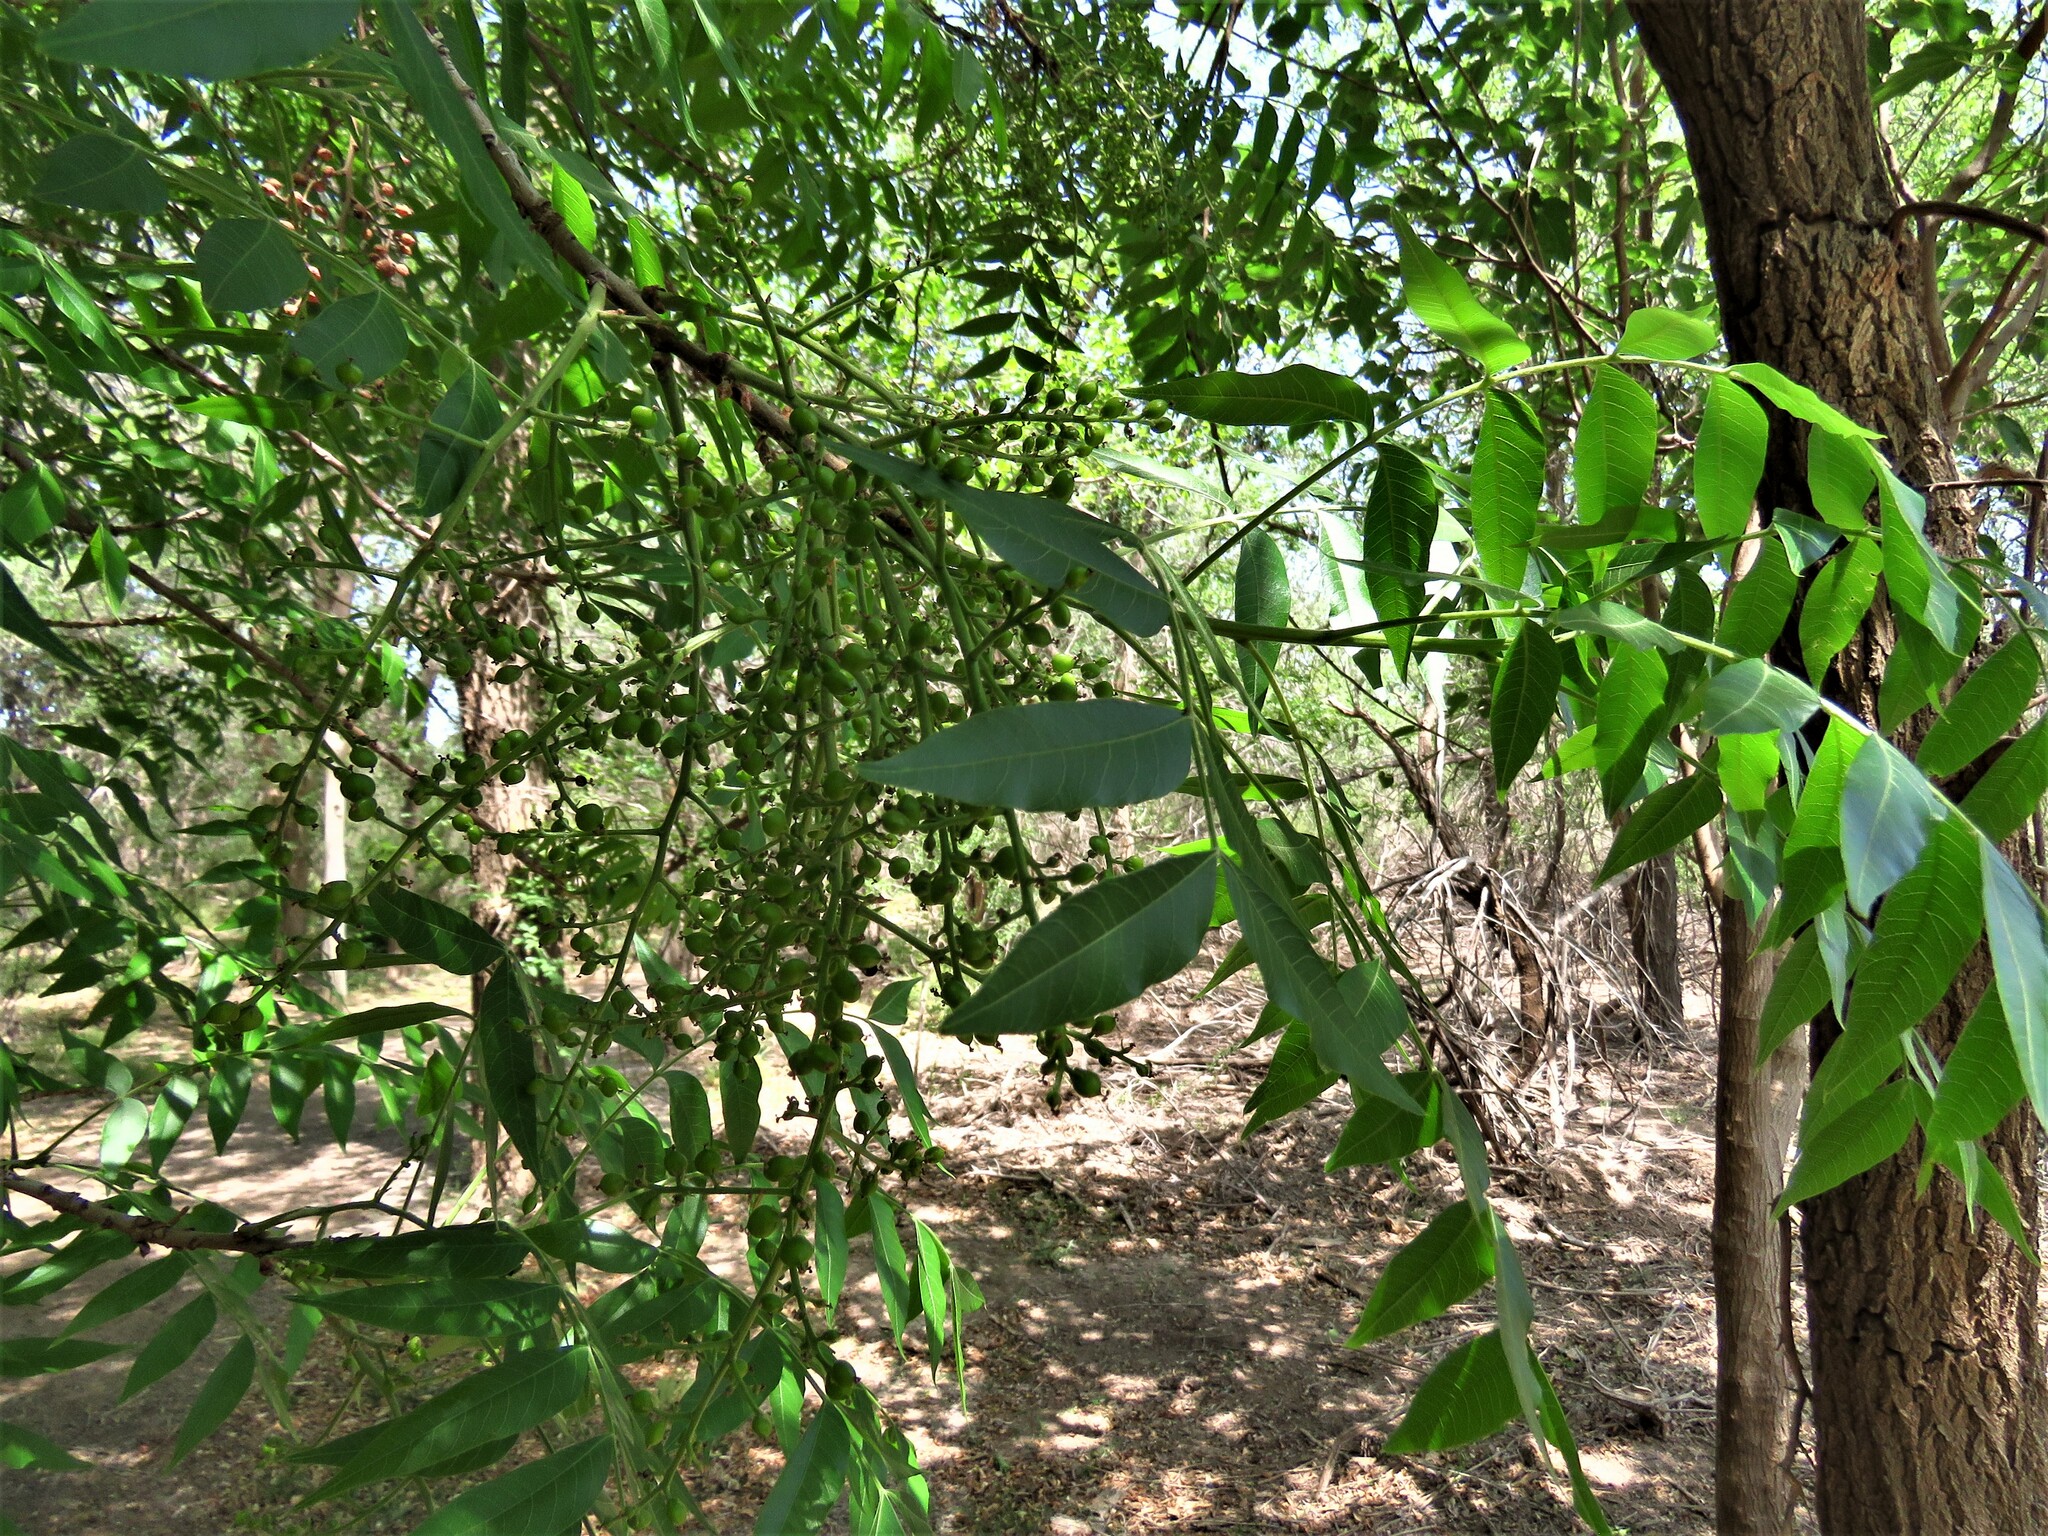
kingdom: Plantae
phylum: Tracheophyta
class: Magnoliopsida
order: Sapindales
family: Anacardiaceae
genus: Pistacia
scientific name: Pistacia chinensis
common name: Chinese pistache
